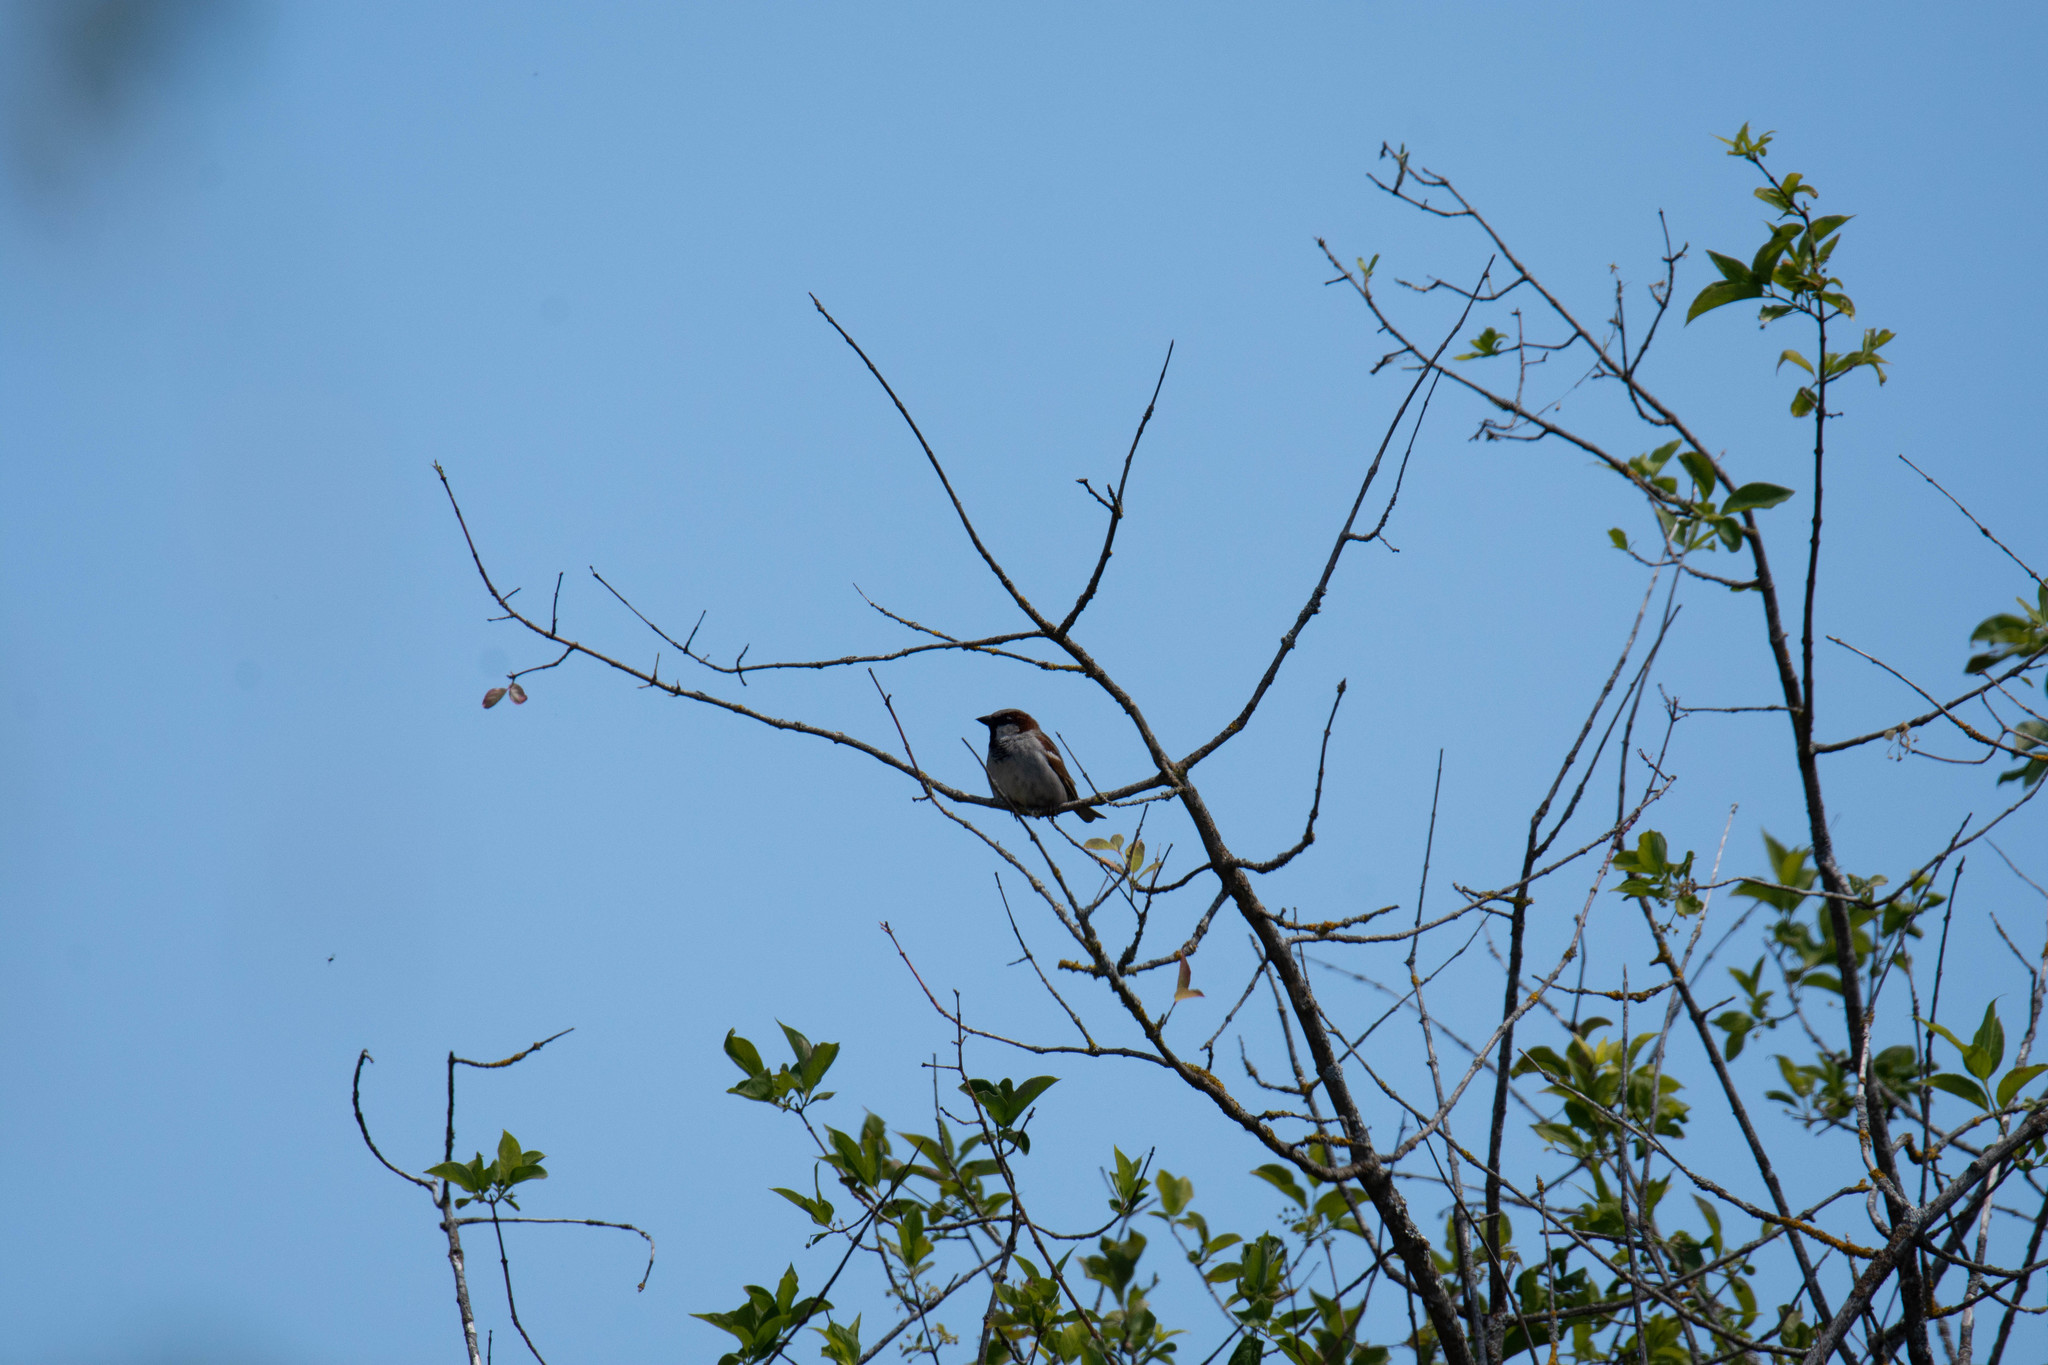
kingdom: Animalia
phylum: Chordata
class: Aves
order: Passeriformes
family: Passeridae
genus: Passer
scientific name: Passer domesticus
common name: House sparrow
